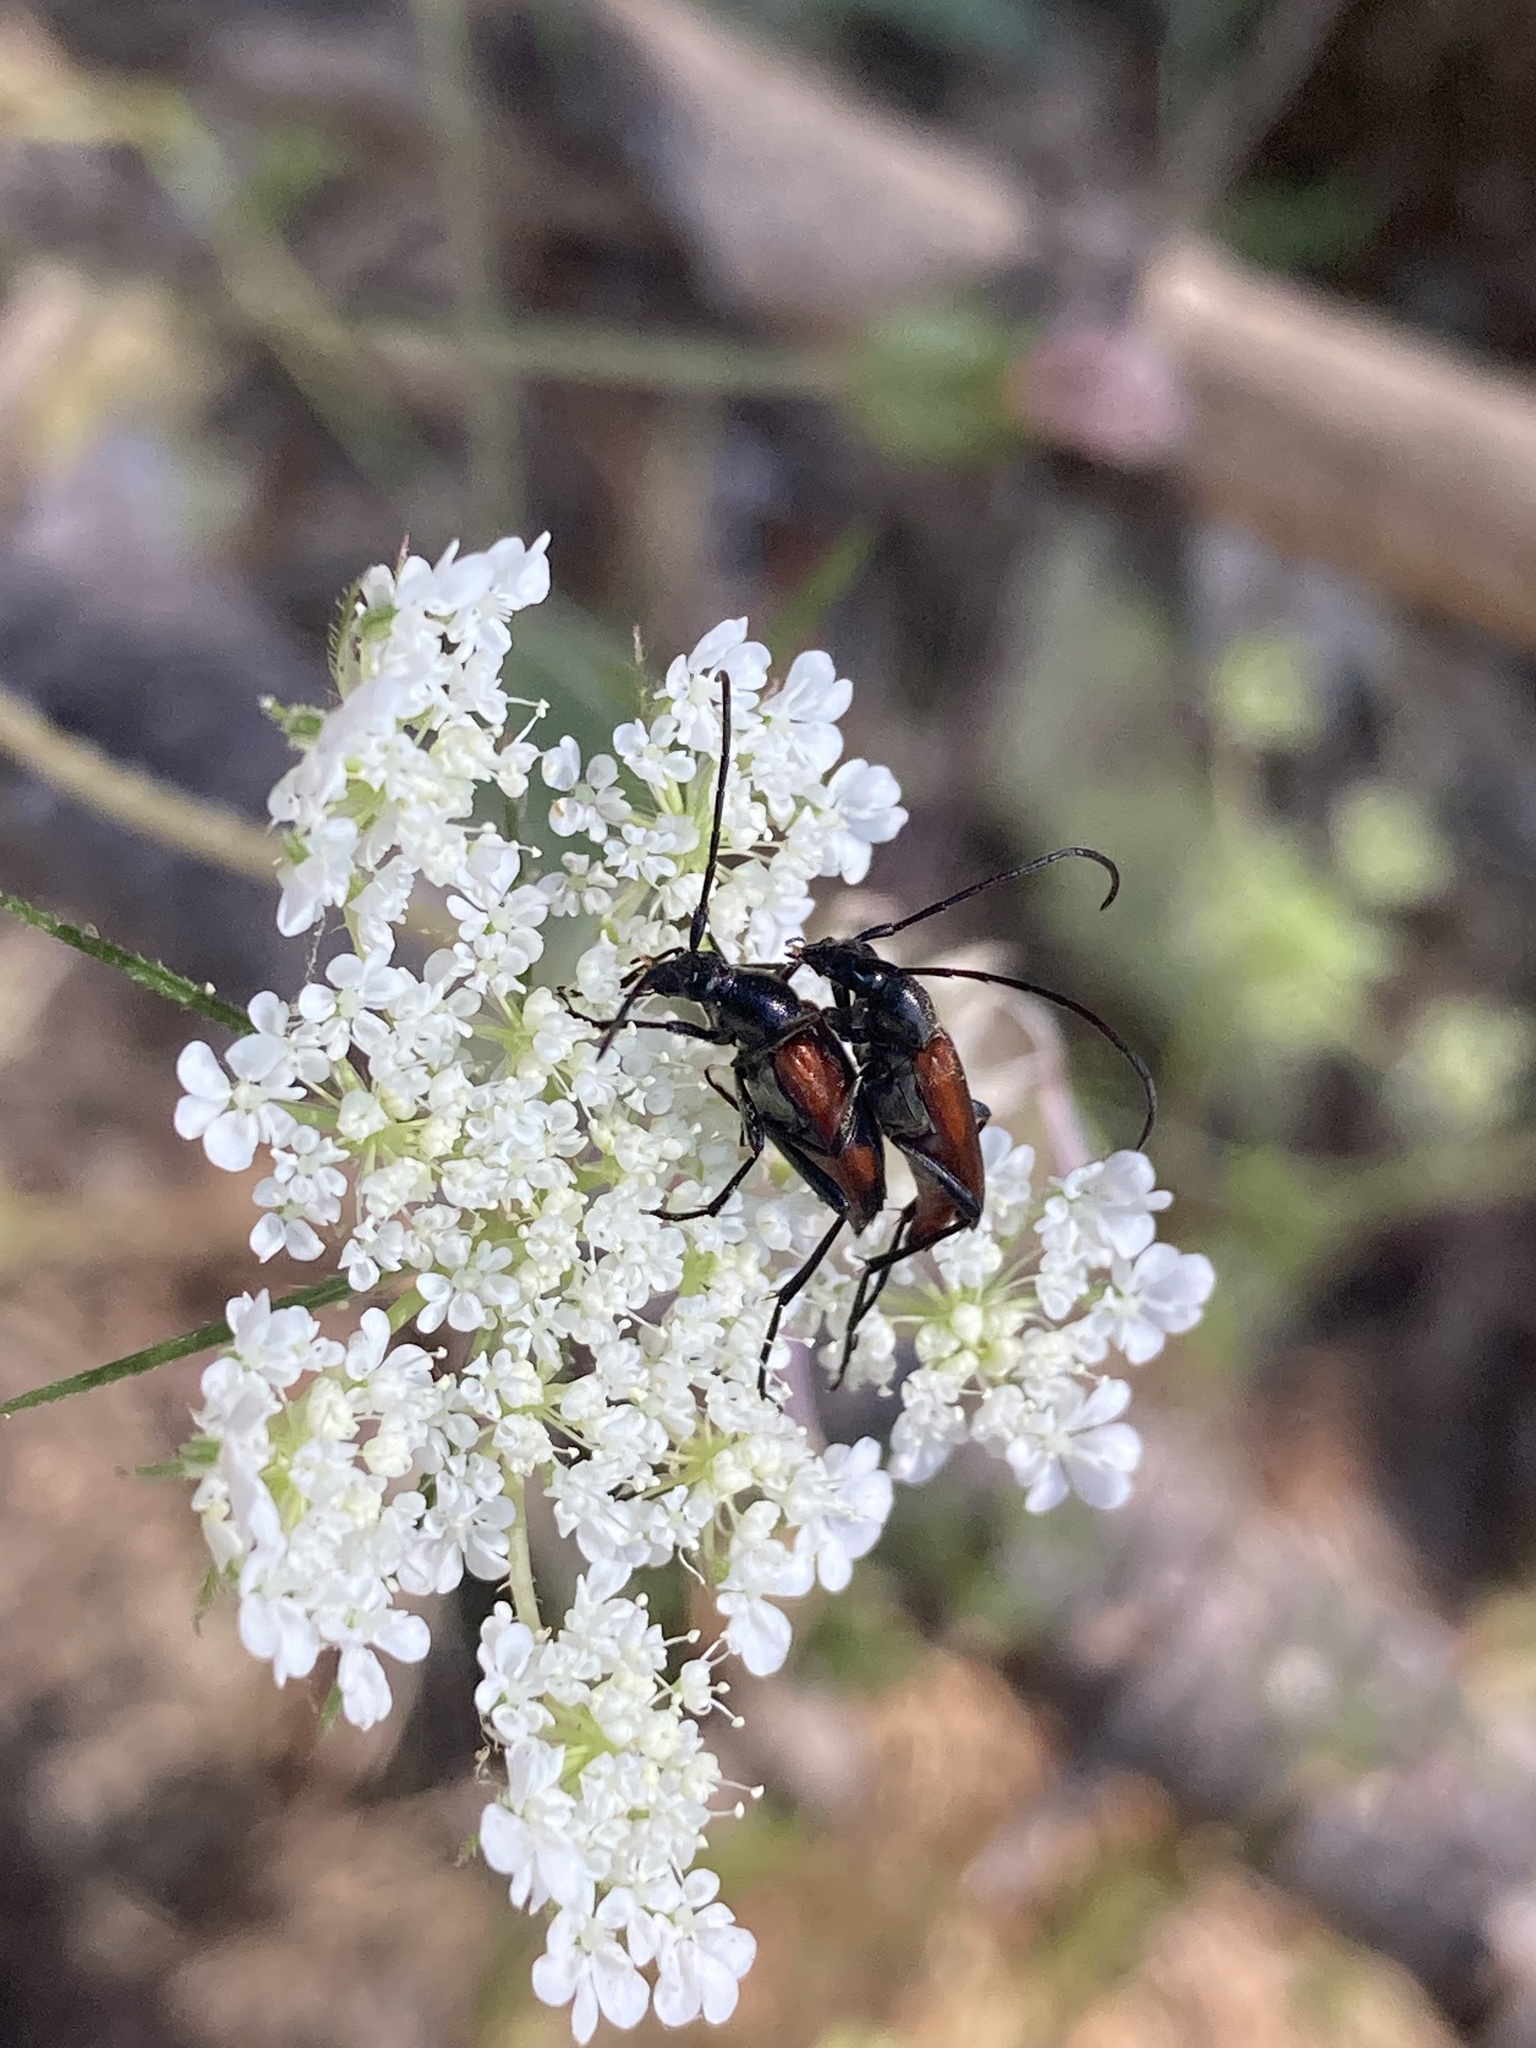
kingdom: Animalia
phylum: Arthropoda
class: Insecta
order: Coleoptera
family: Cerambycidae
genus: Stenurella
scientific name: Stenurella bifasciata
